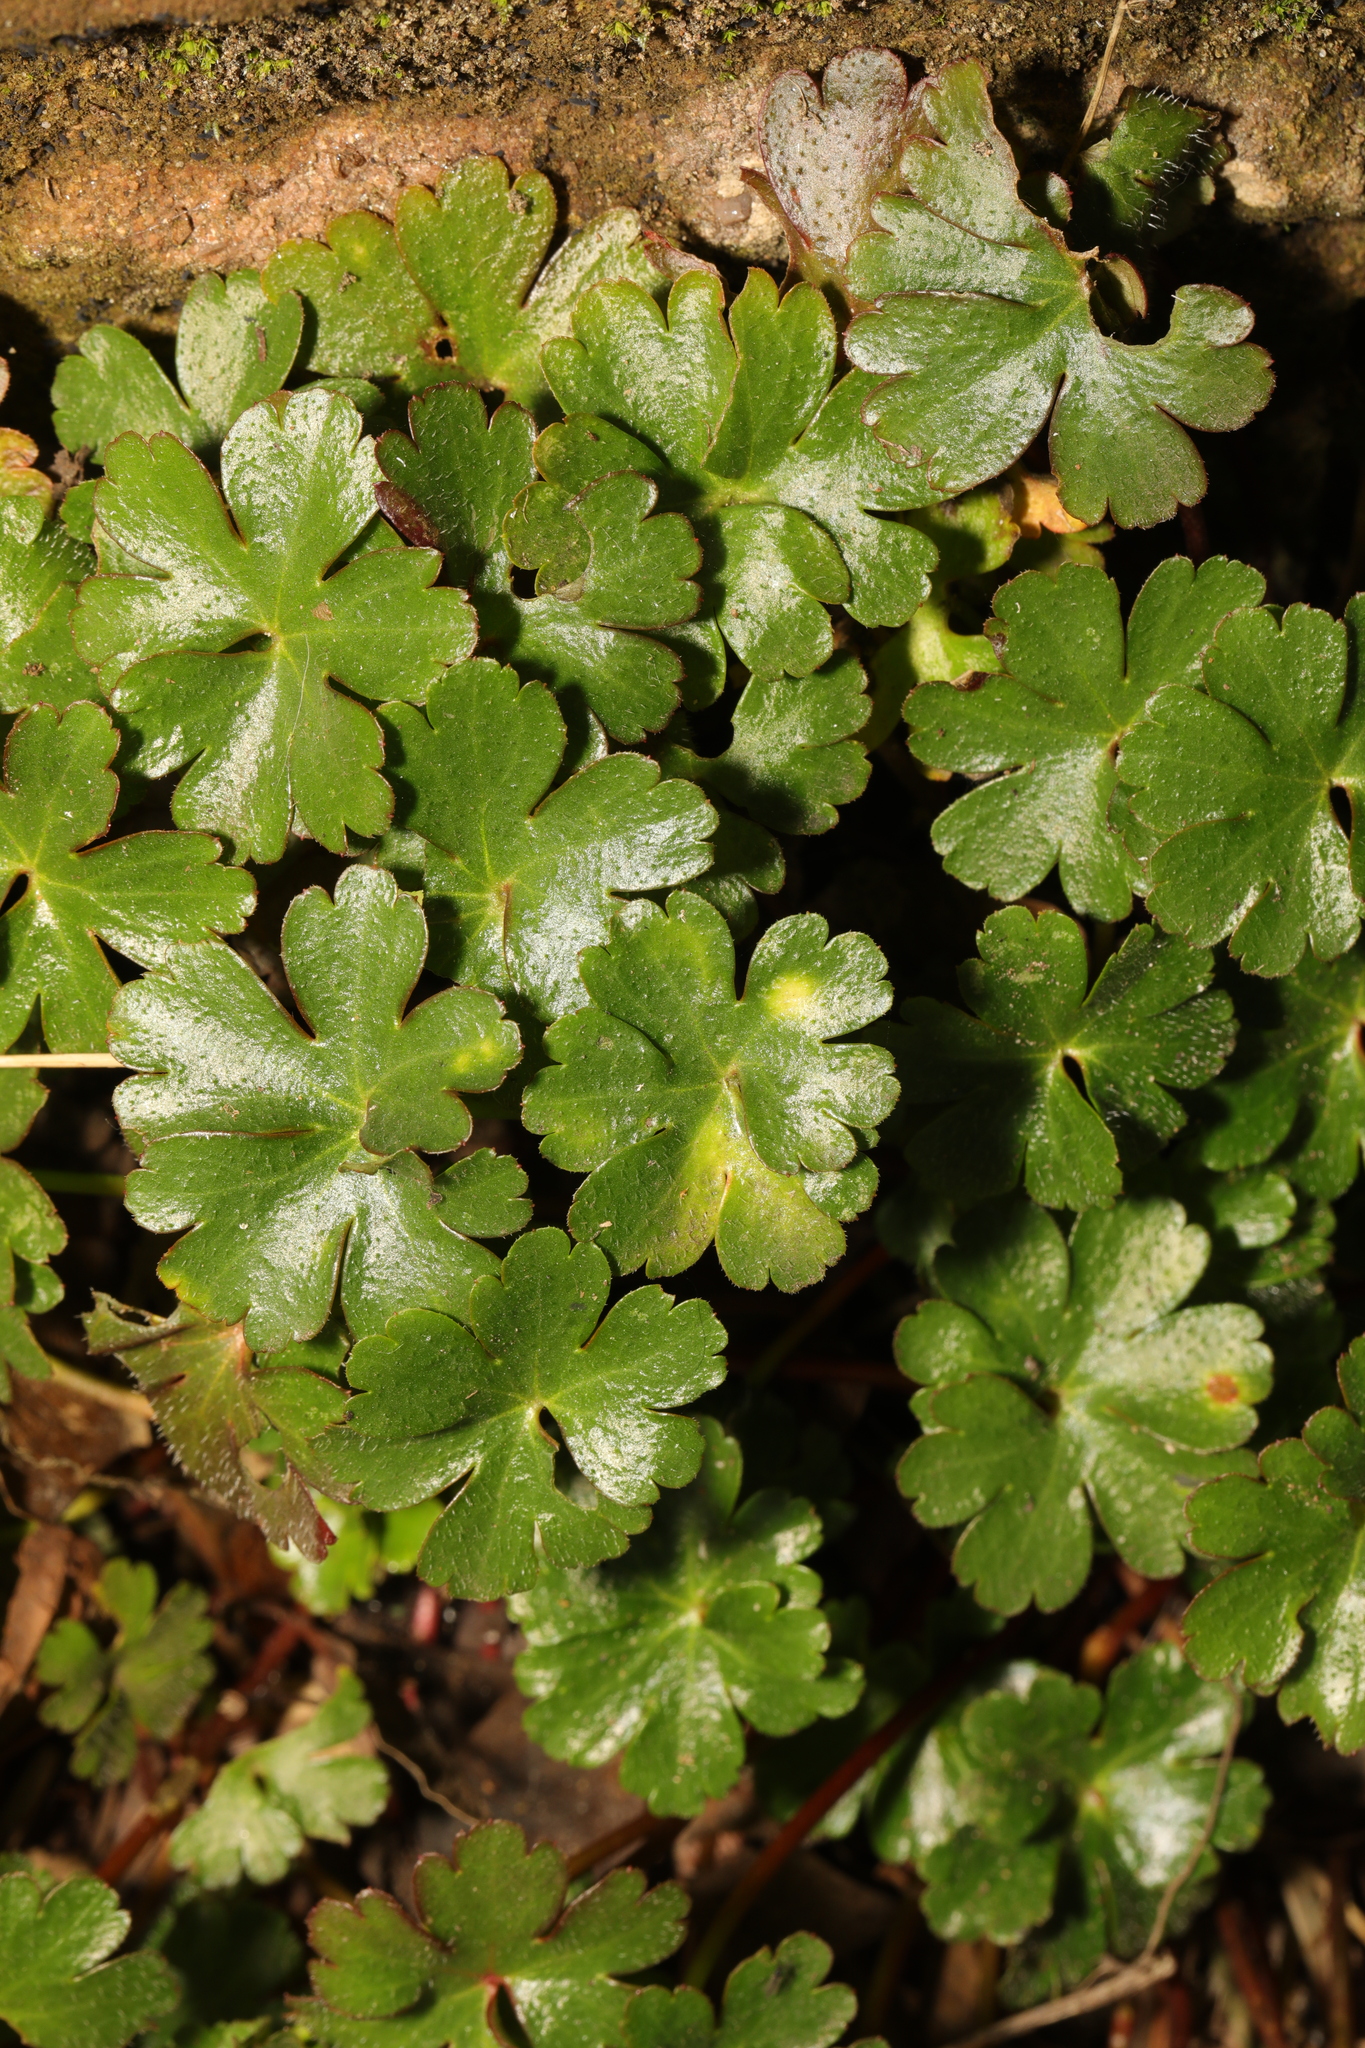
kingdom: Plantae
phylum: Tracheophyta
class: Magnoliopsida
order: Geraniales
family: Geraniaceae
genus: Geranium
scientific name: Geranium lucidum
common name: Shining crane's-bill
